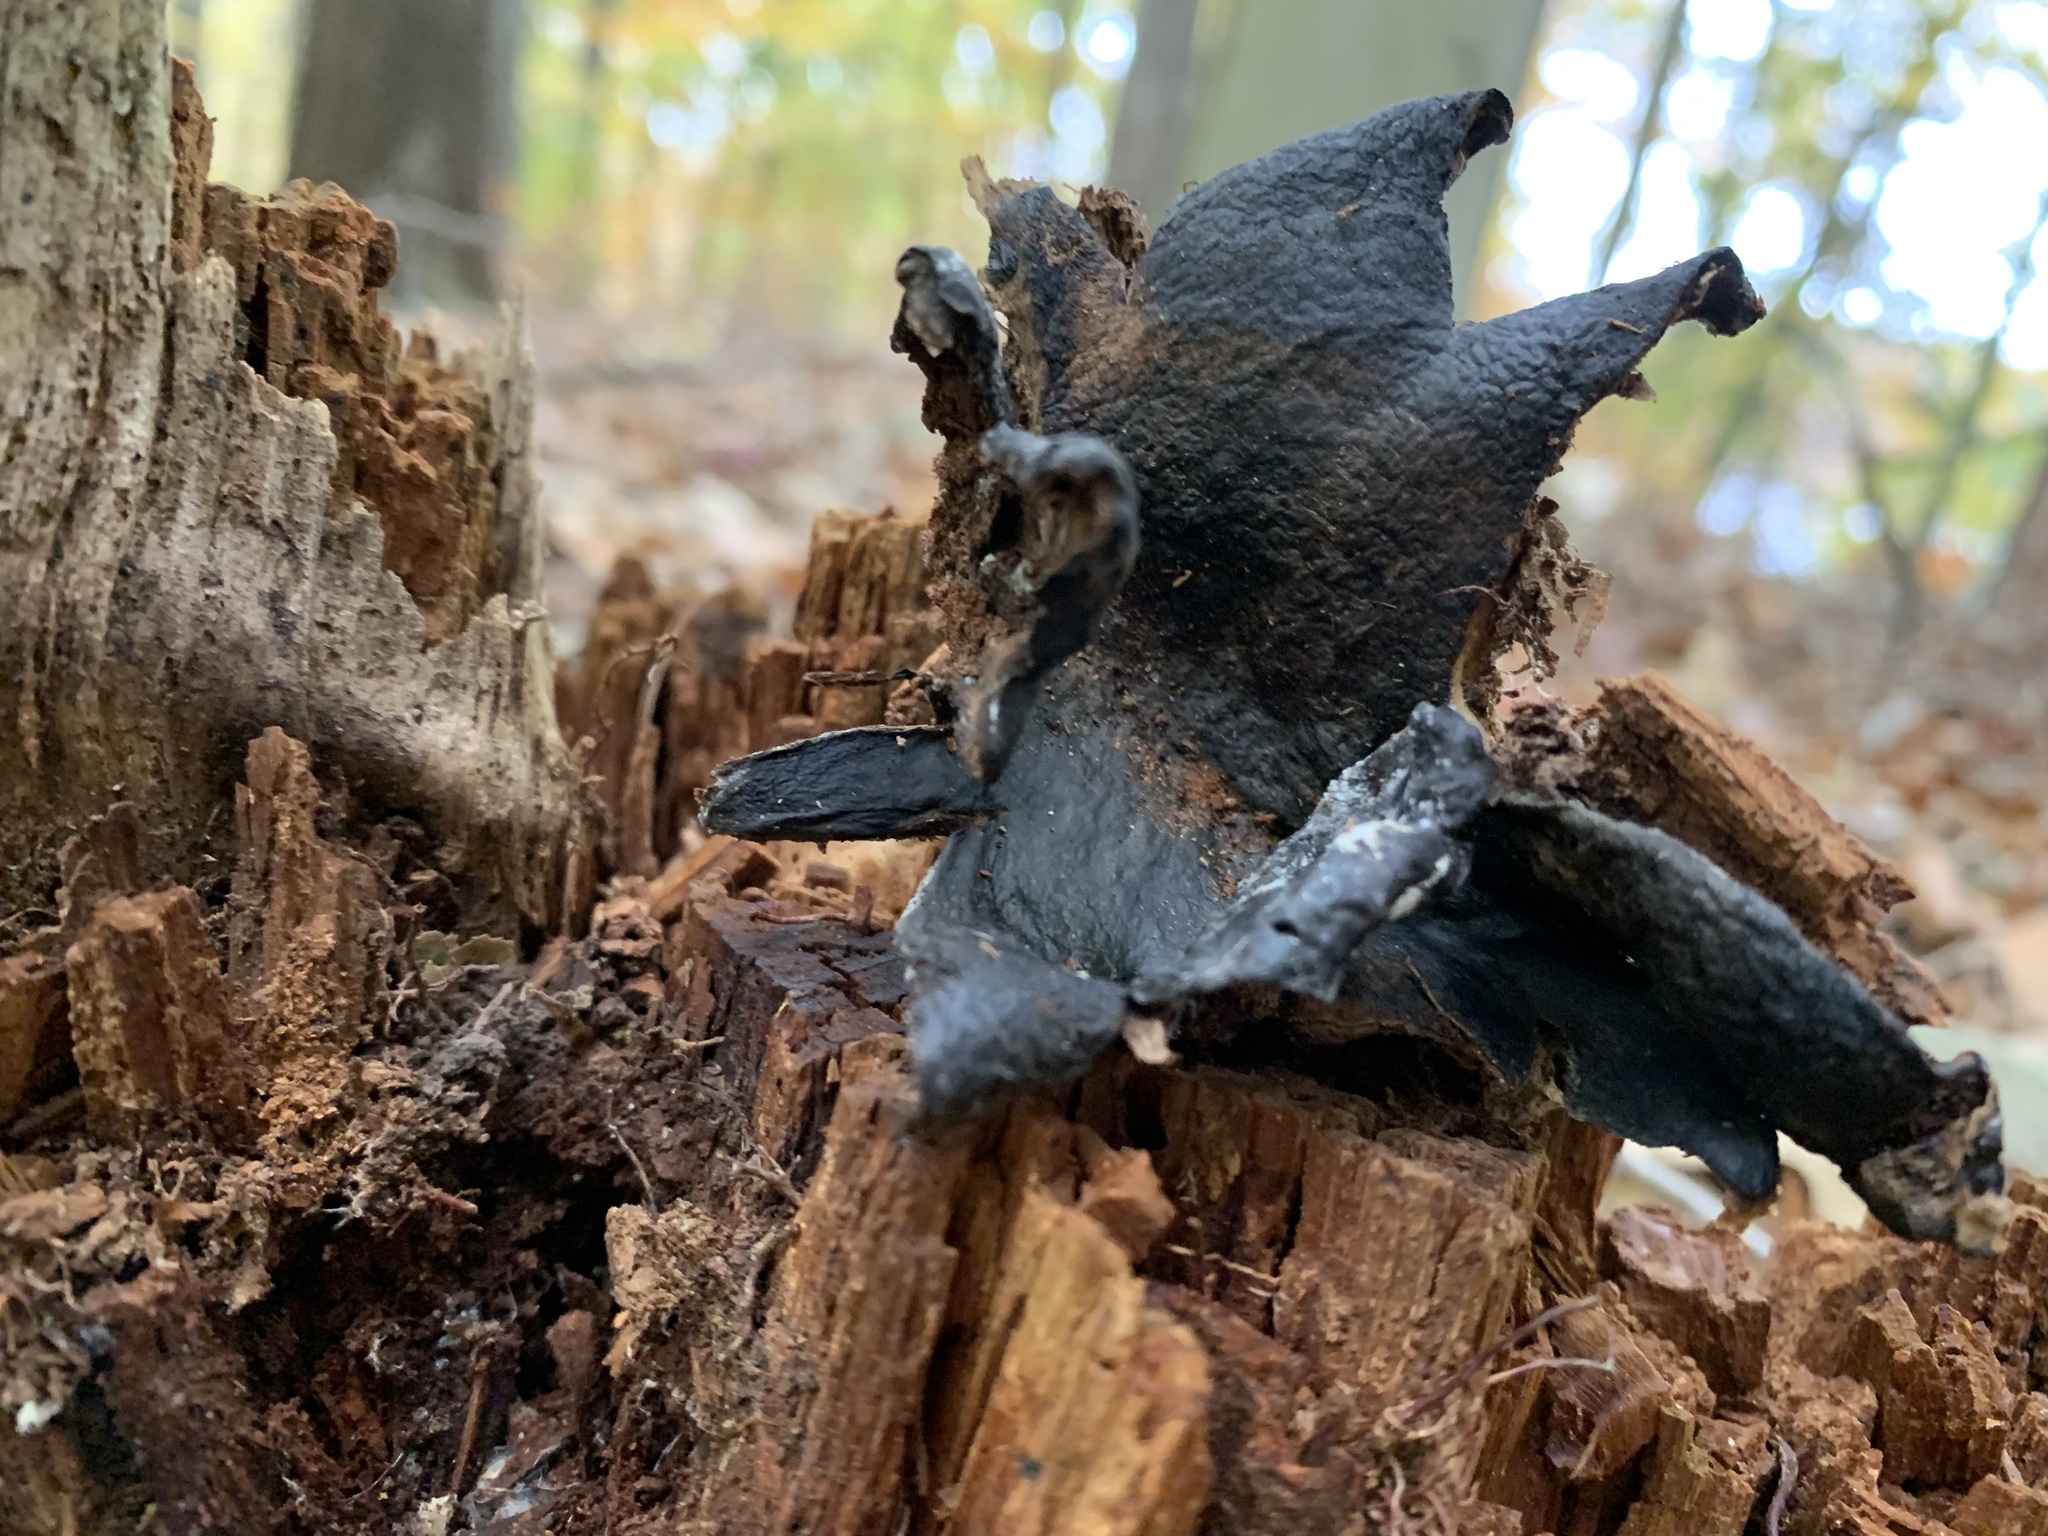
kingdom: Fungi
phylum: Basidiomycota
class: Agaricomycetes
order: Boletales
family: Sclerodermataceae
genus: Scleroderma
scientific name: Scleroderma
